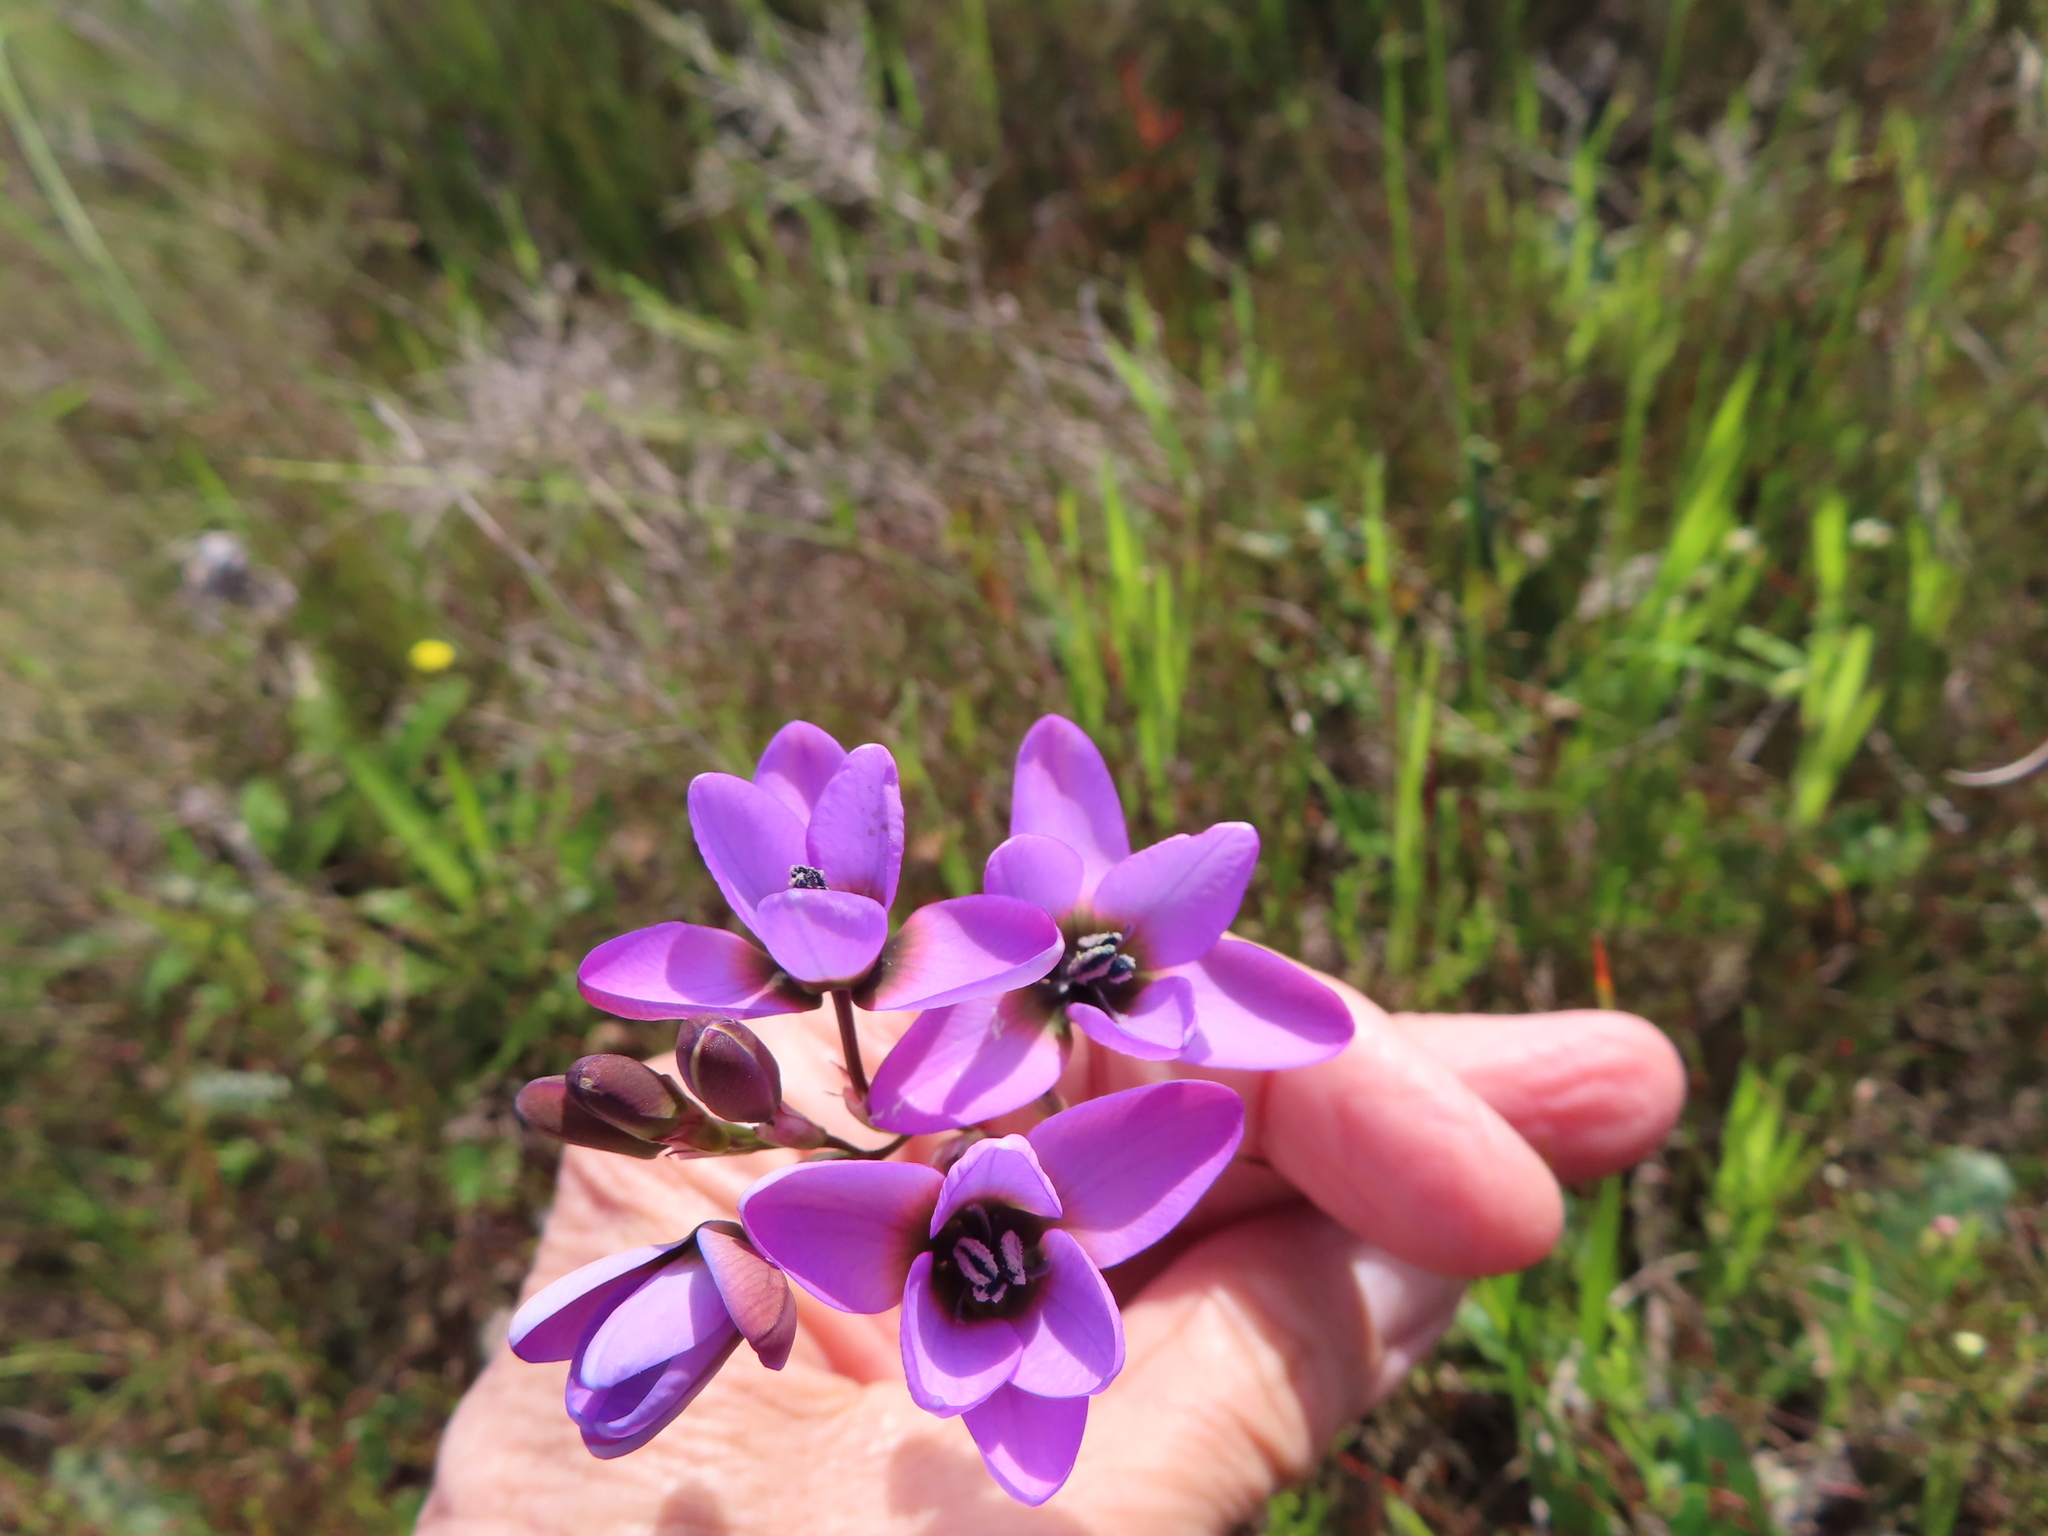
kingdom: Plantae
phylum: Tracheophyta
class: Liliopsida
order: Asparagales
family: Iridaceae
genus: Ixia
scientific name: Ixia versicolor
